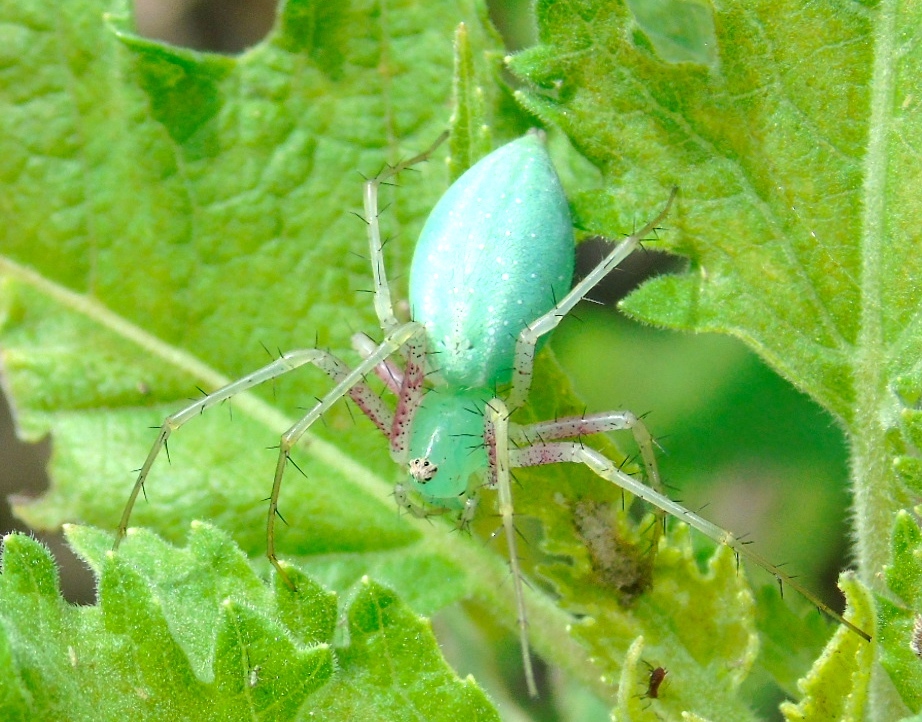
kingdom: Animalia
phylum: Arthropoda
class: Arachnida
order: Araneae
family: Oxyopidae
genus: Peucetia
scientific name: Peucetia longipalpis
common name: Lynx spiders
